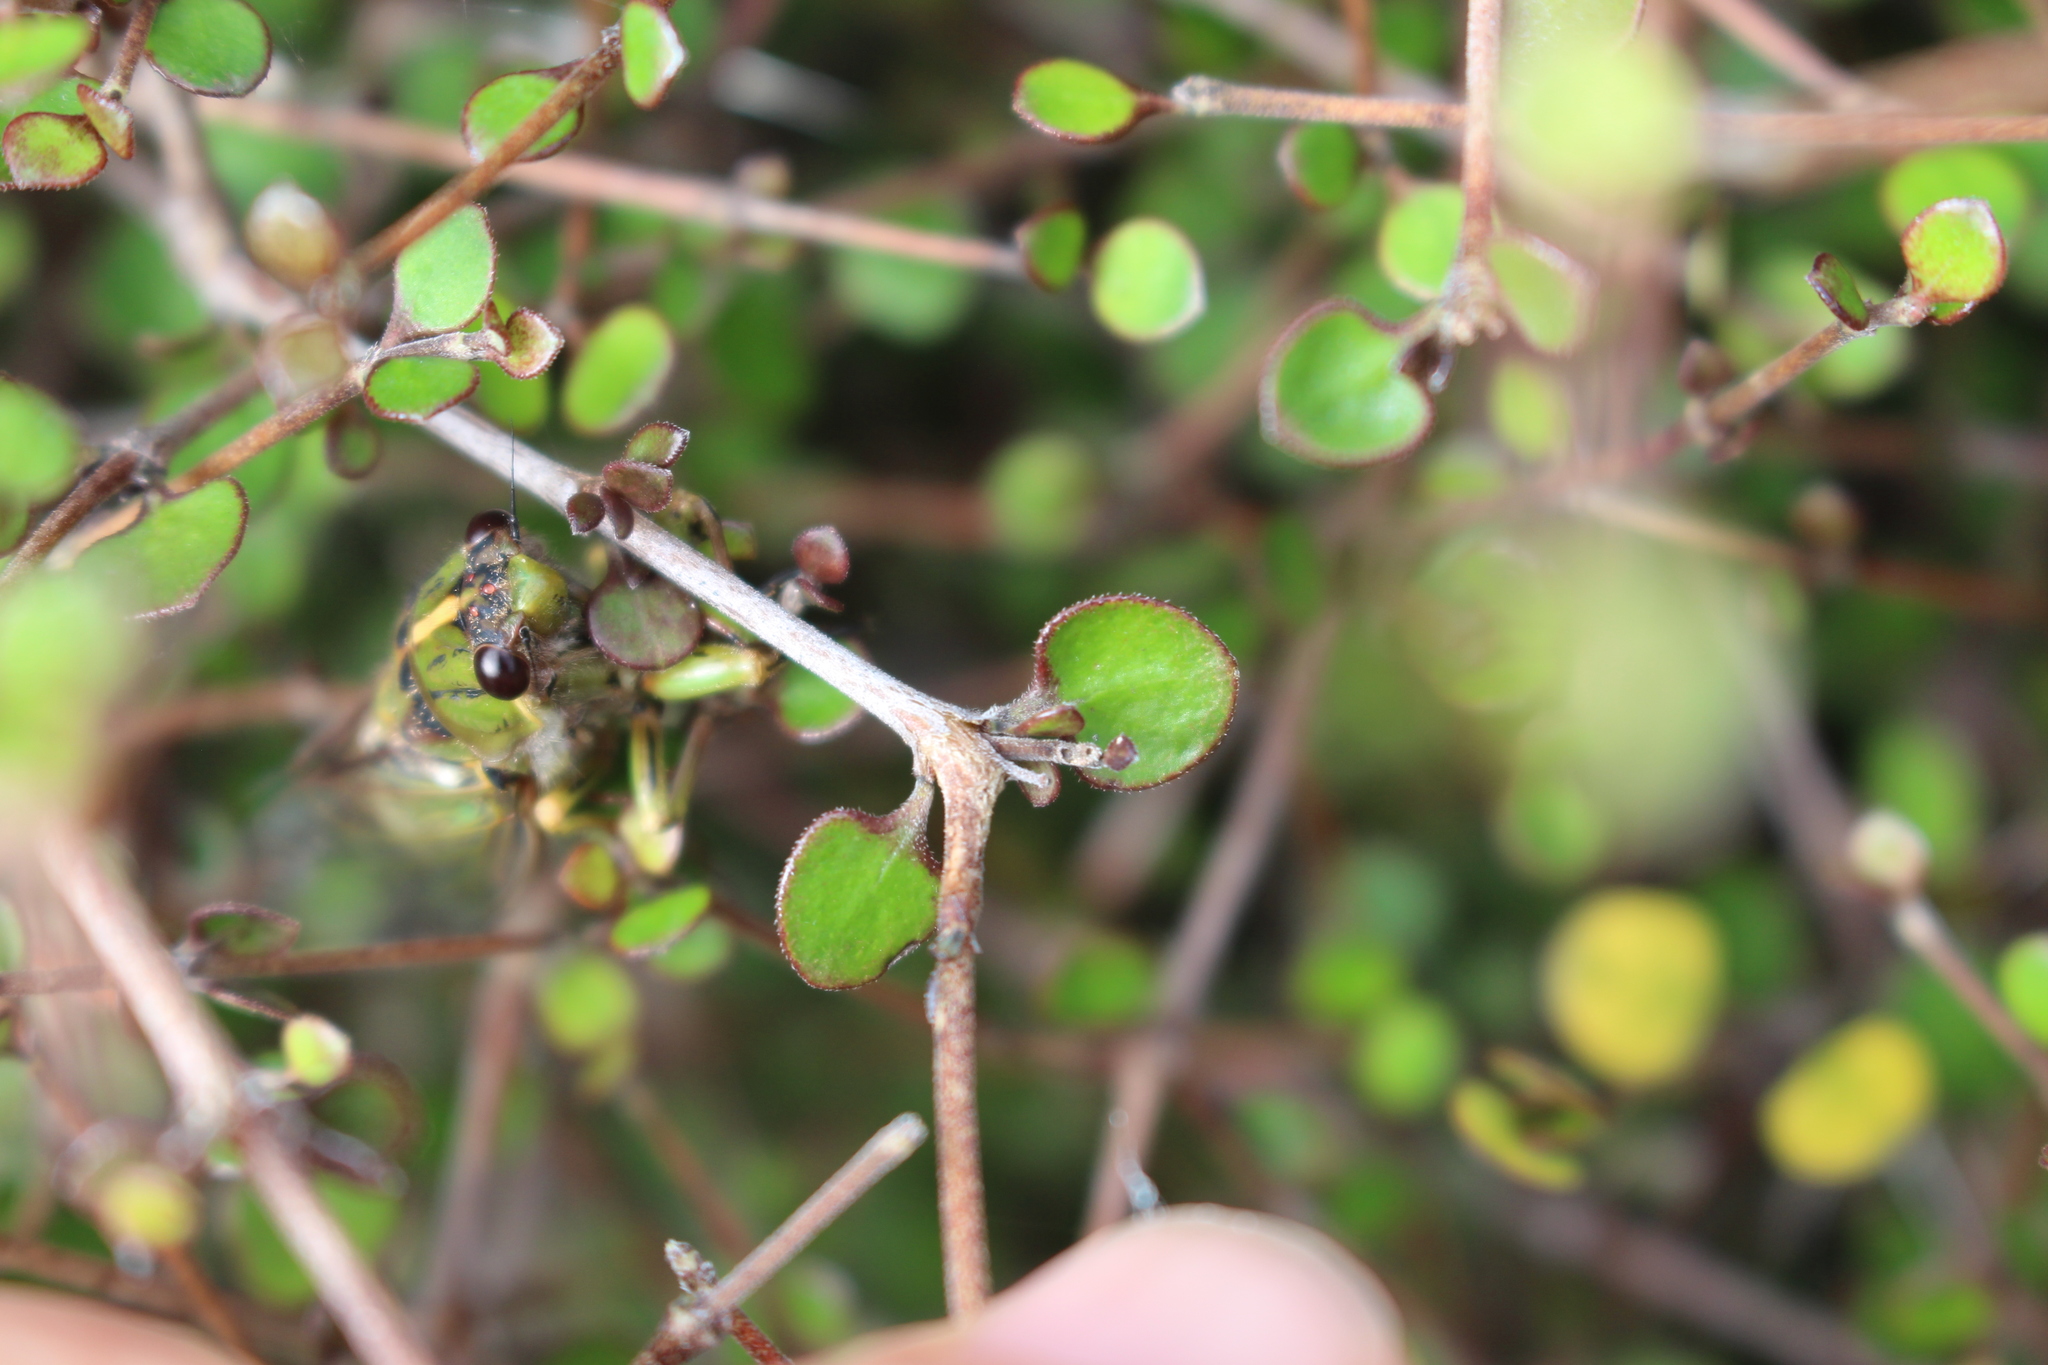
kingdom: Plantae
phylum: Tracheophyta
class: Magnoliopsida
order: Gentianales
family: Rubiaceae
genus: Coprosma
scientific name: Coprosma crassifolia
